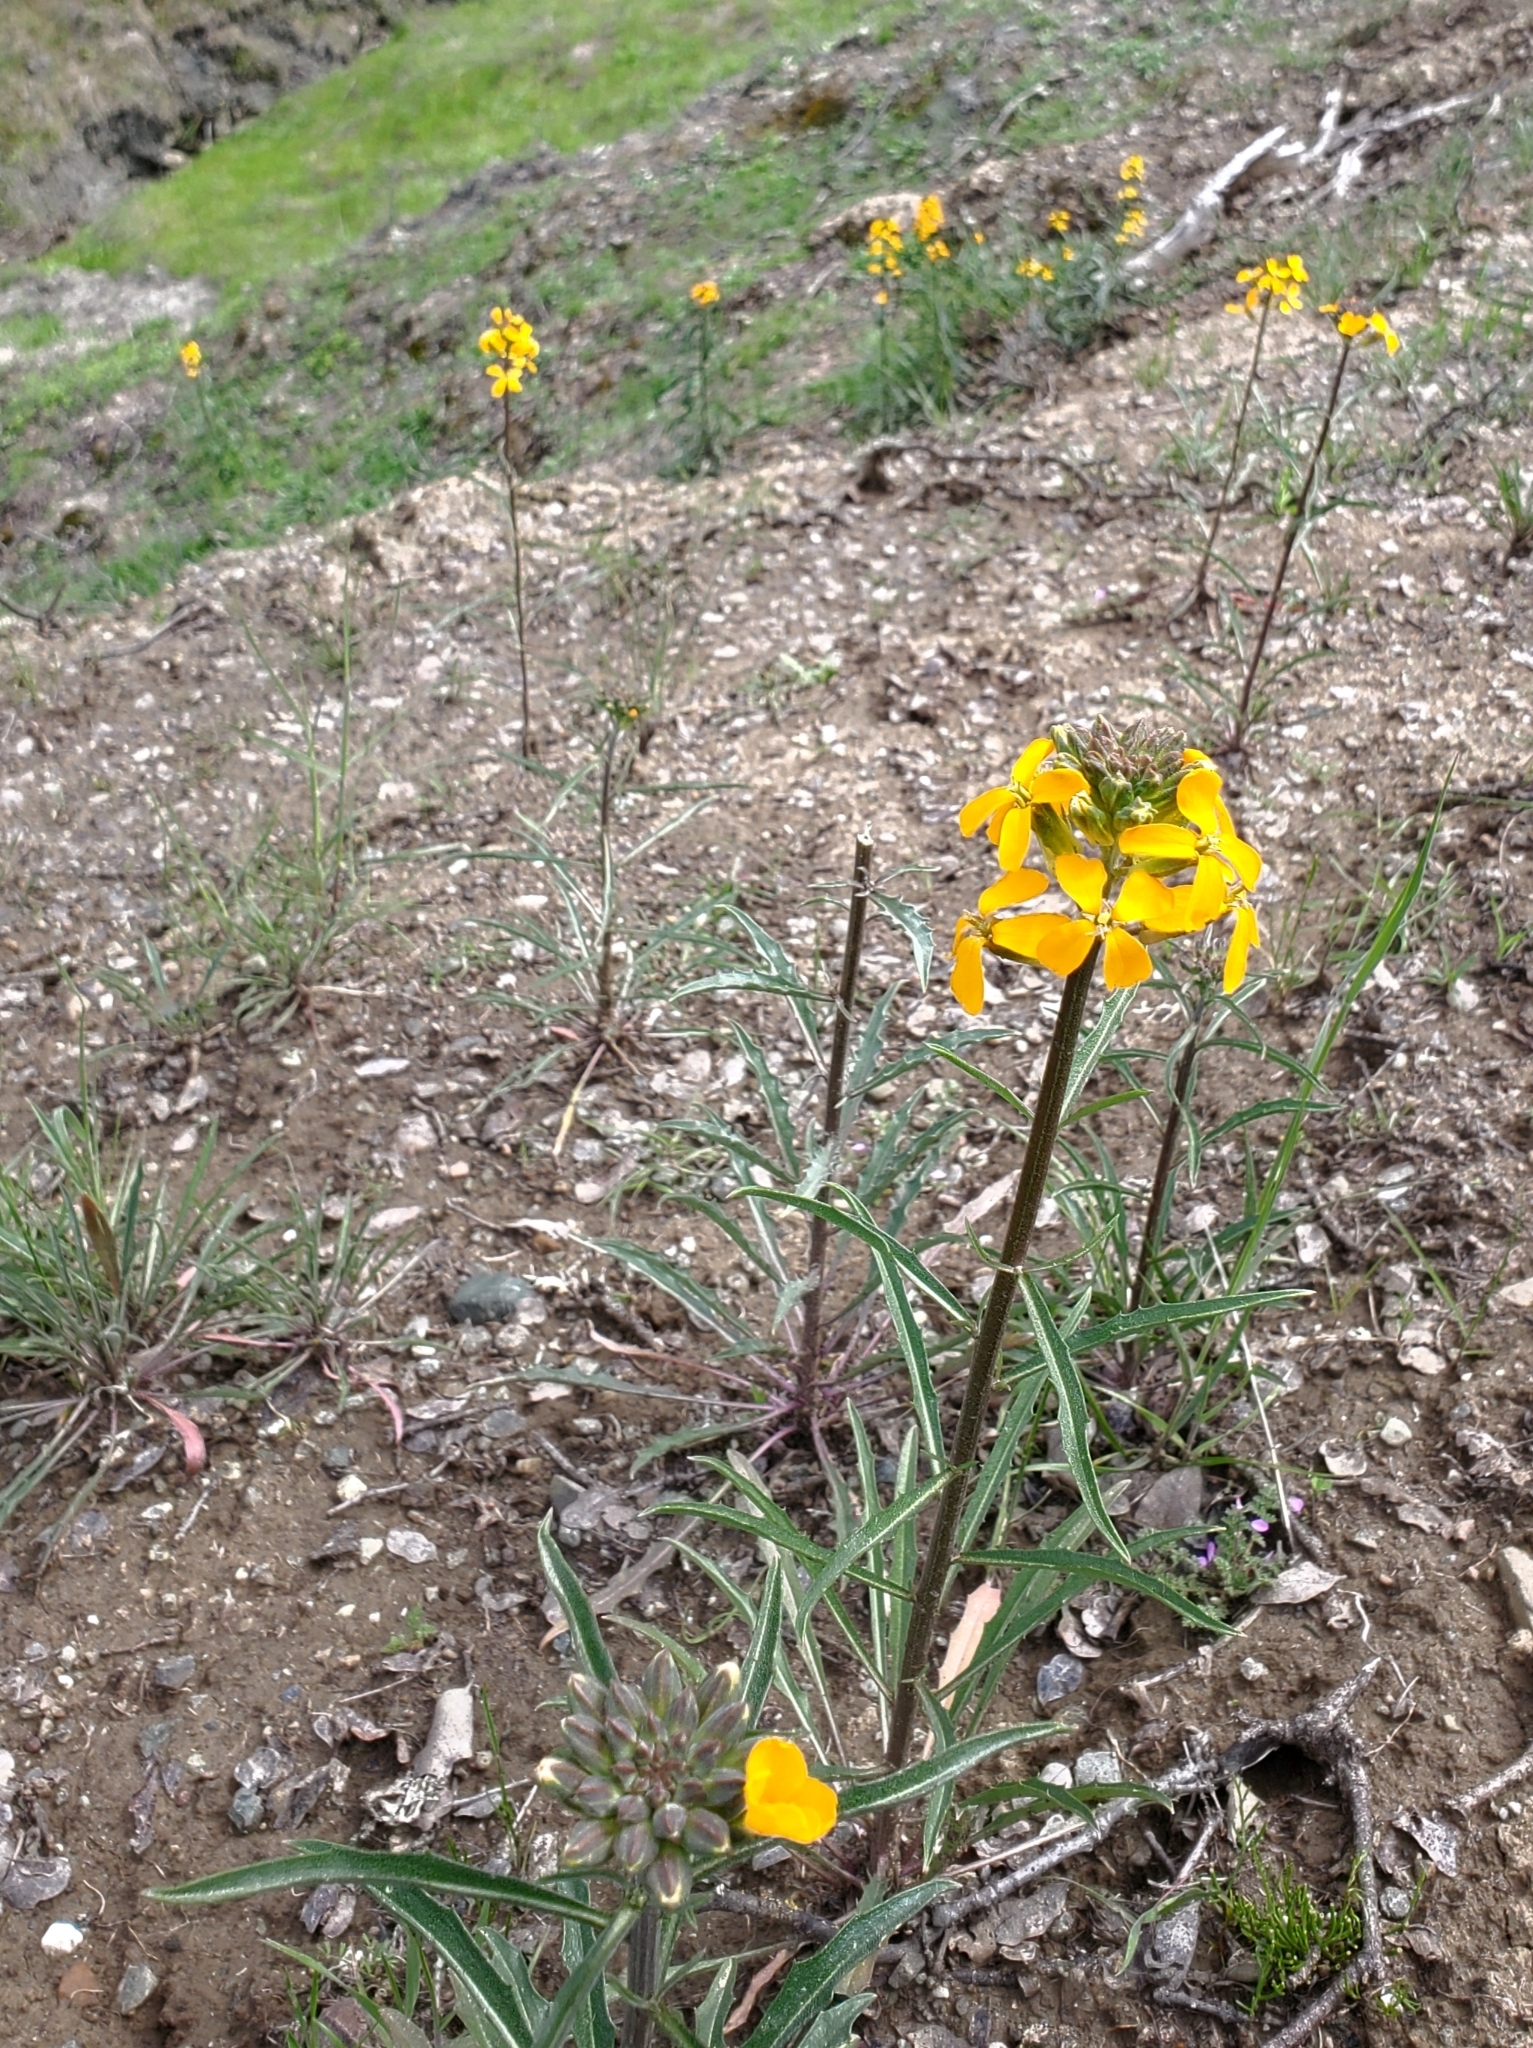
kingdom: Plantae
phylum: Tracheophyta
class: Magnoliopsida
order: Brassicales
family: Brassicaceae
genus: Erysimum
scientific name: Erysimum capitatum
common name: Western wallflower
